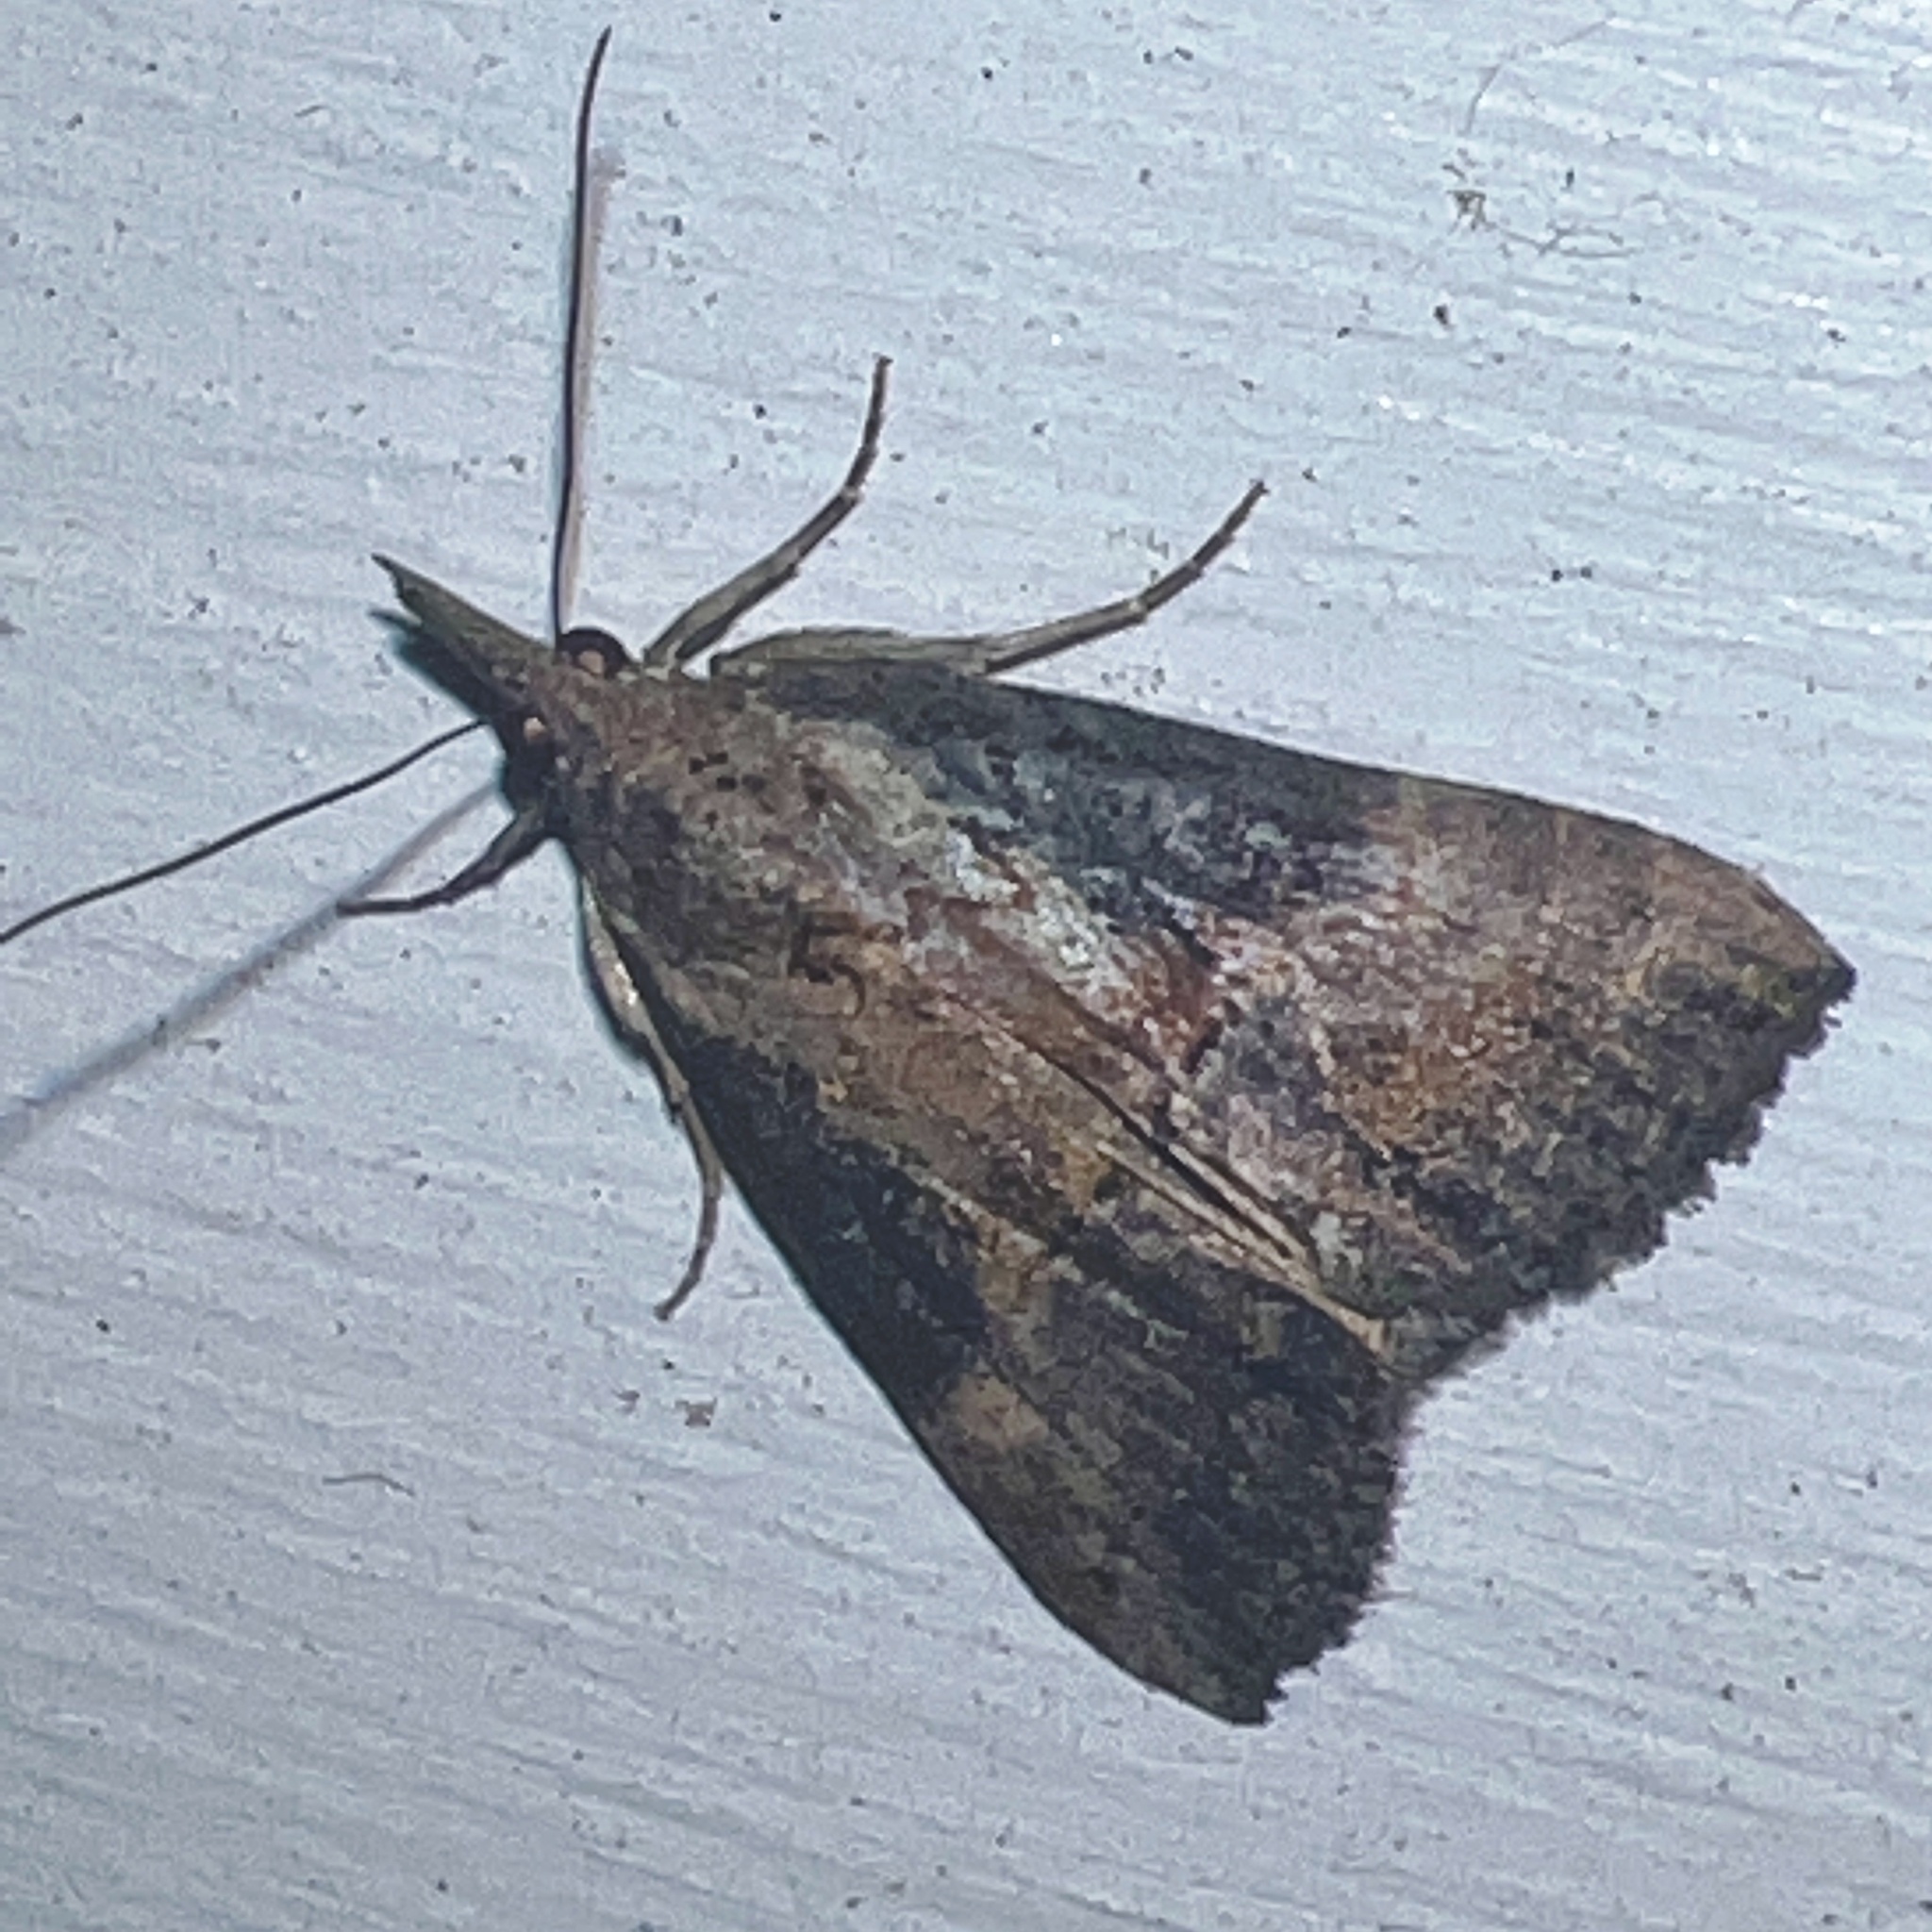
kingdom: Animalia
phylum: Arthropoda
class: Insecta
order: Lepidoptera
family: Erebidae
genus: Hypena
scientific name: Hypena scabra
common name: Green cloverworm
